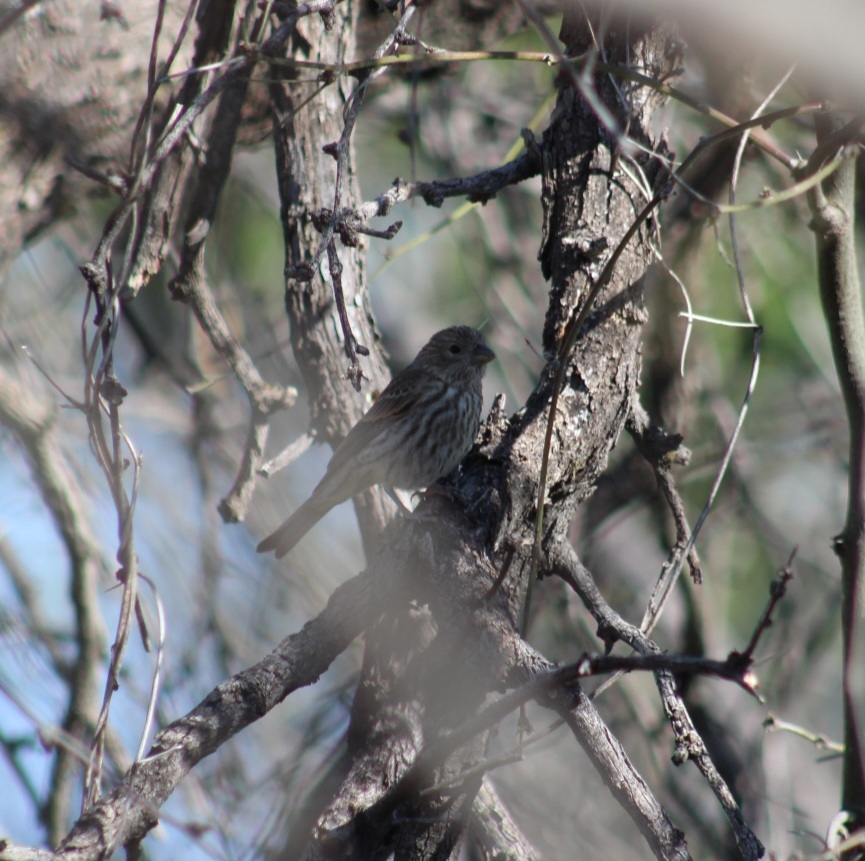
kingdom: Animalia
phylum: Chordata
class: Aves
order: Passeriformes
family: Fringillidae
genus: Haemorhous
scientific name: Haemorhous mexicanus
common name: House finch
